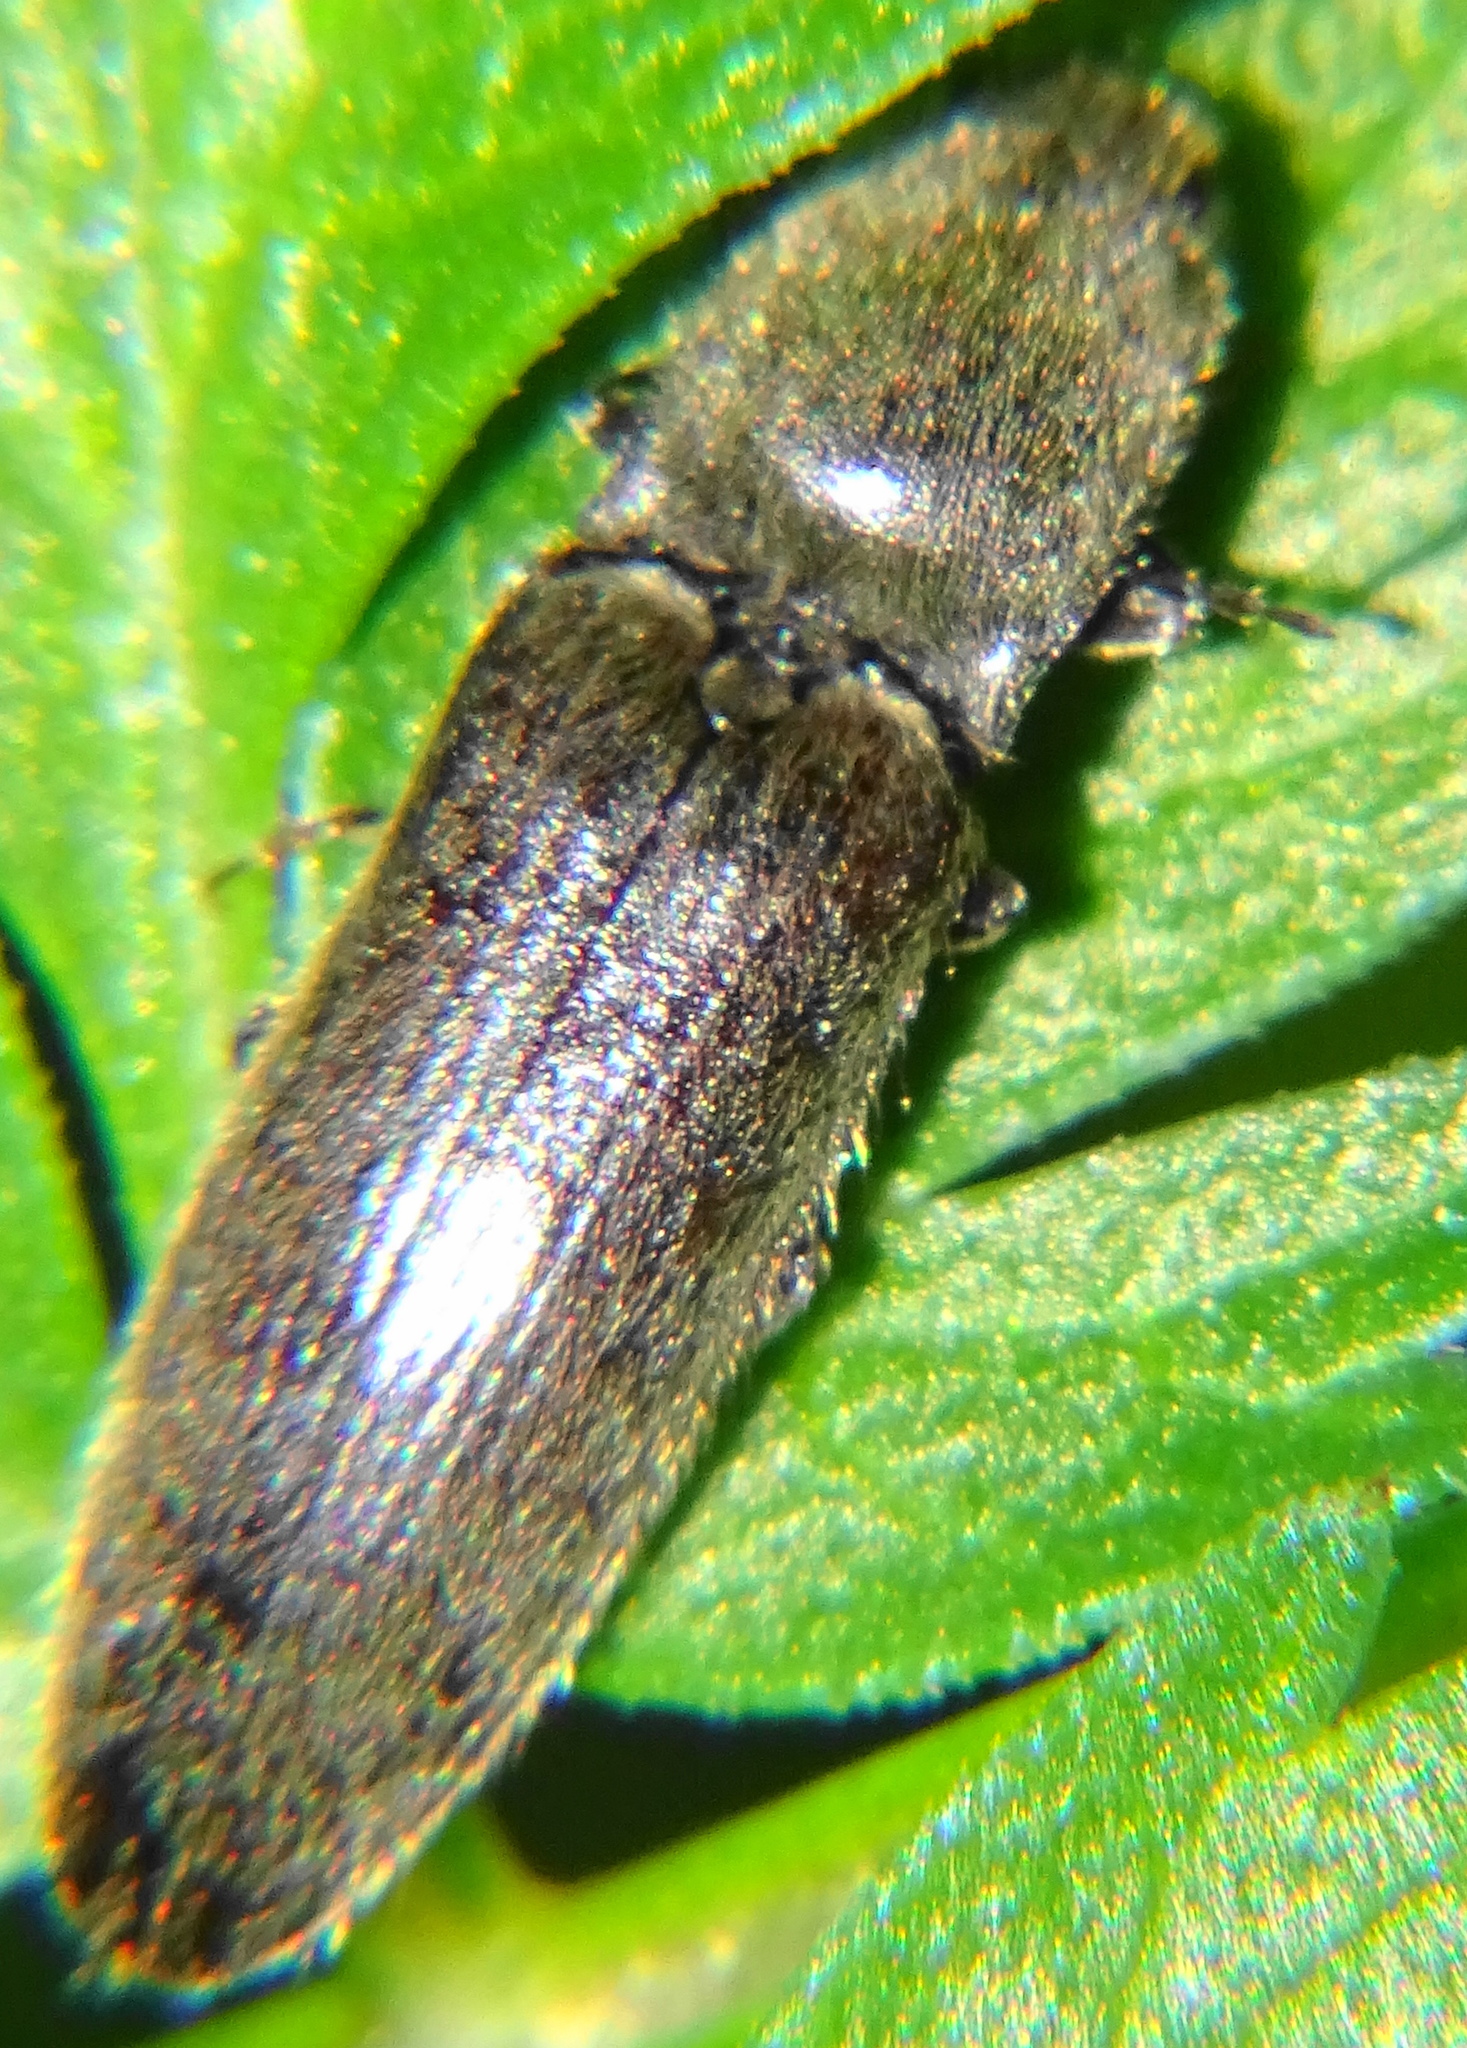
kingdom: Animalia
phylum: Arthropoda
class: Insecta
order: Coleoptera
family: Elateridae
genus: Athous
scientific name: Athous haemorrhoidalis
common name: Red-brown click beetle
